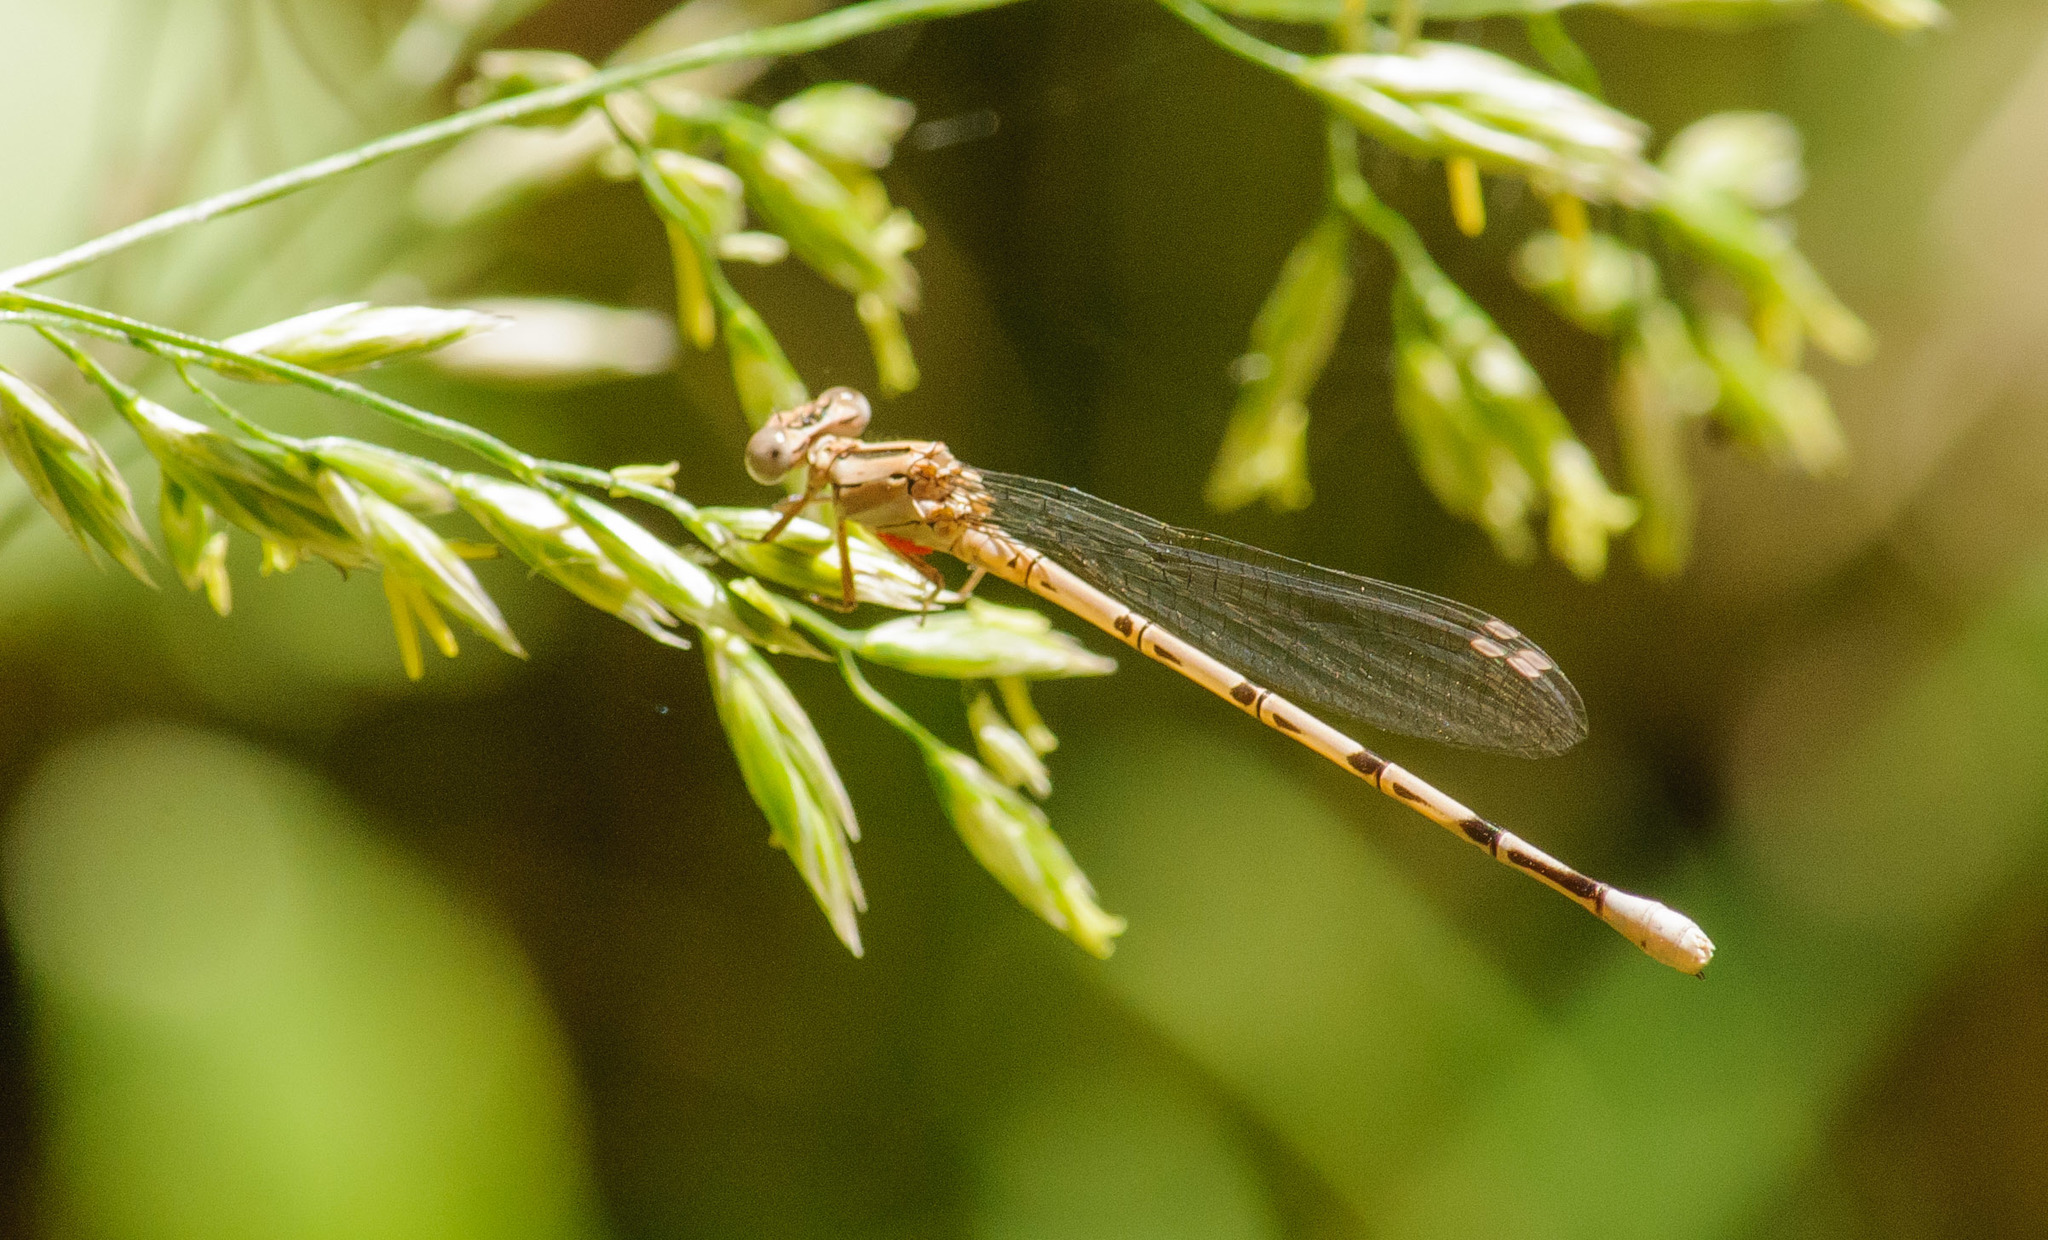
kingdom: Animalia
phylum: Arthropoda
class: Insecta
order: Odonata
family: Coenagrionidae
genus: Argia
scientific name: Argia vivida
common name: Vivid dancer
